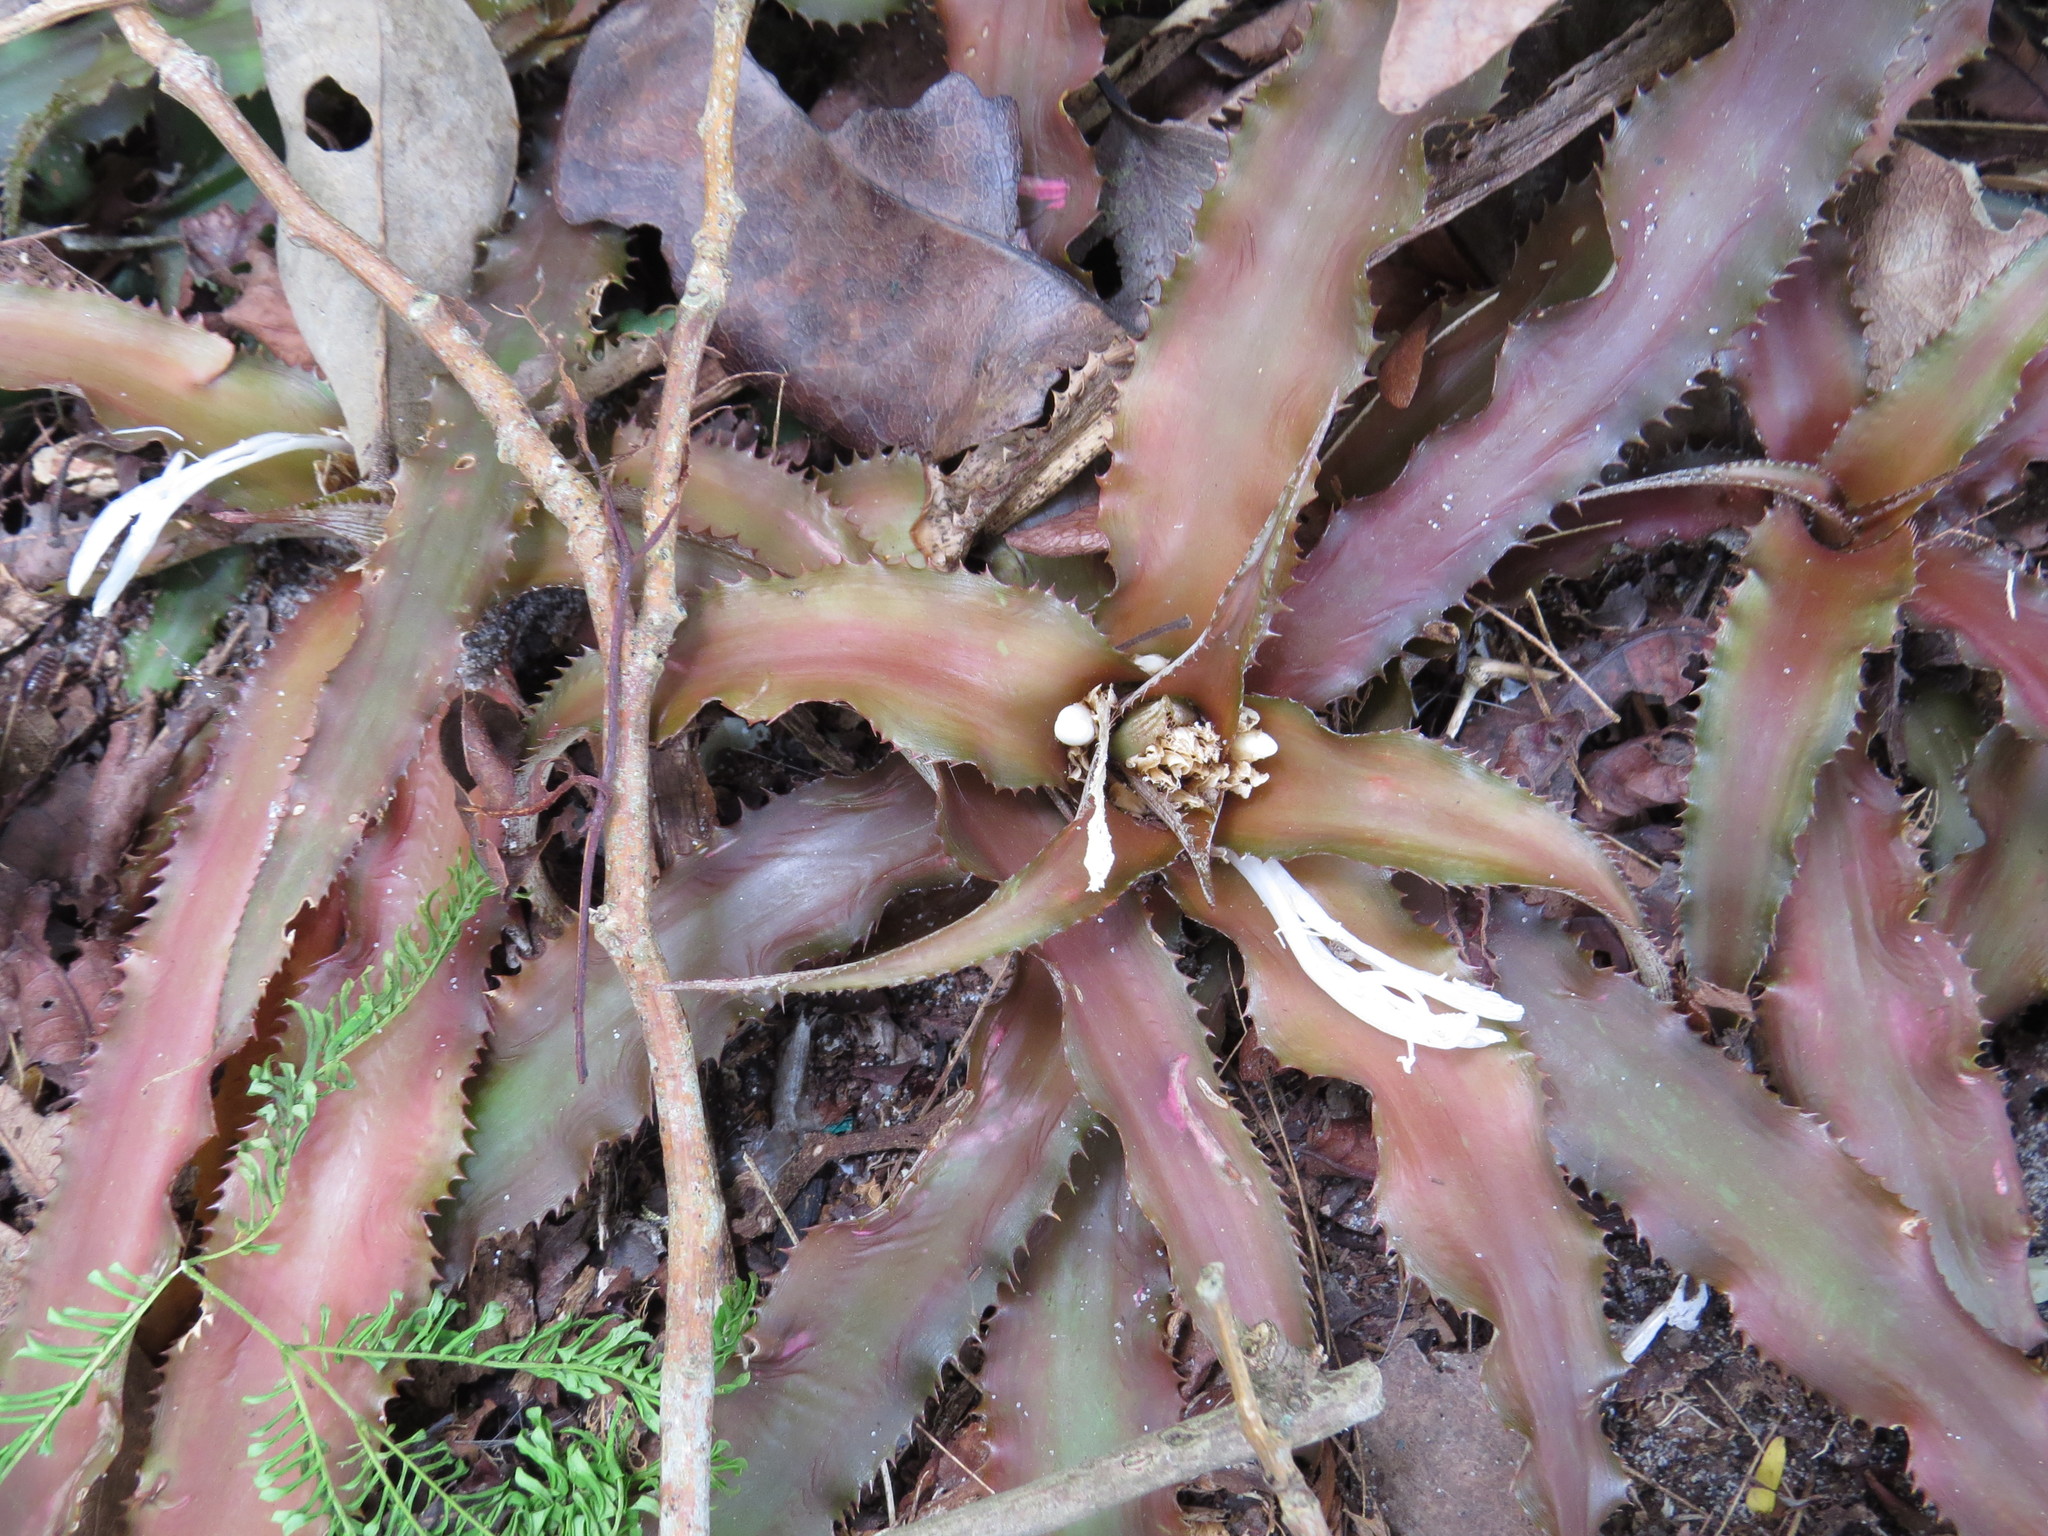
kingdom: Plantae
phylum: Tracheophyta
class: Liliopsida
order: Poales
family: Bromeliaceae
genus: Cryptanthus
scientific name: Cryptanthus acaulis
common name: Starfishplant
